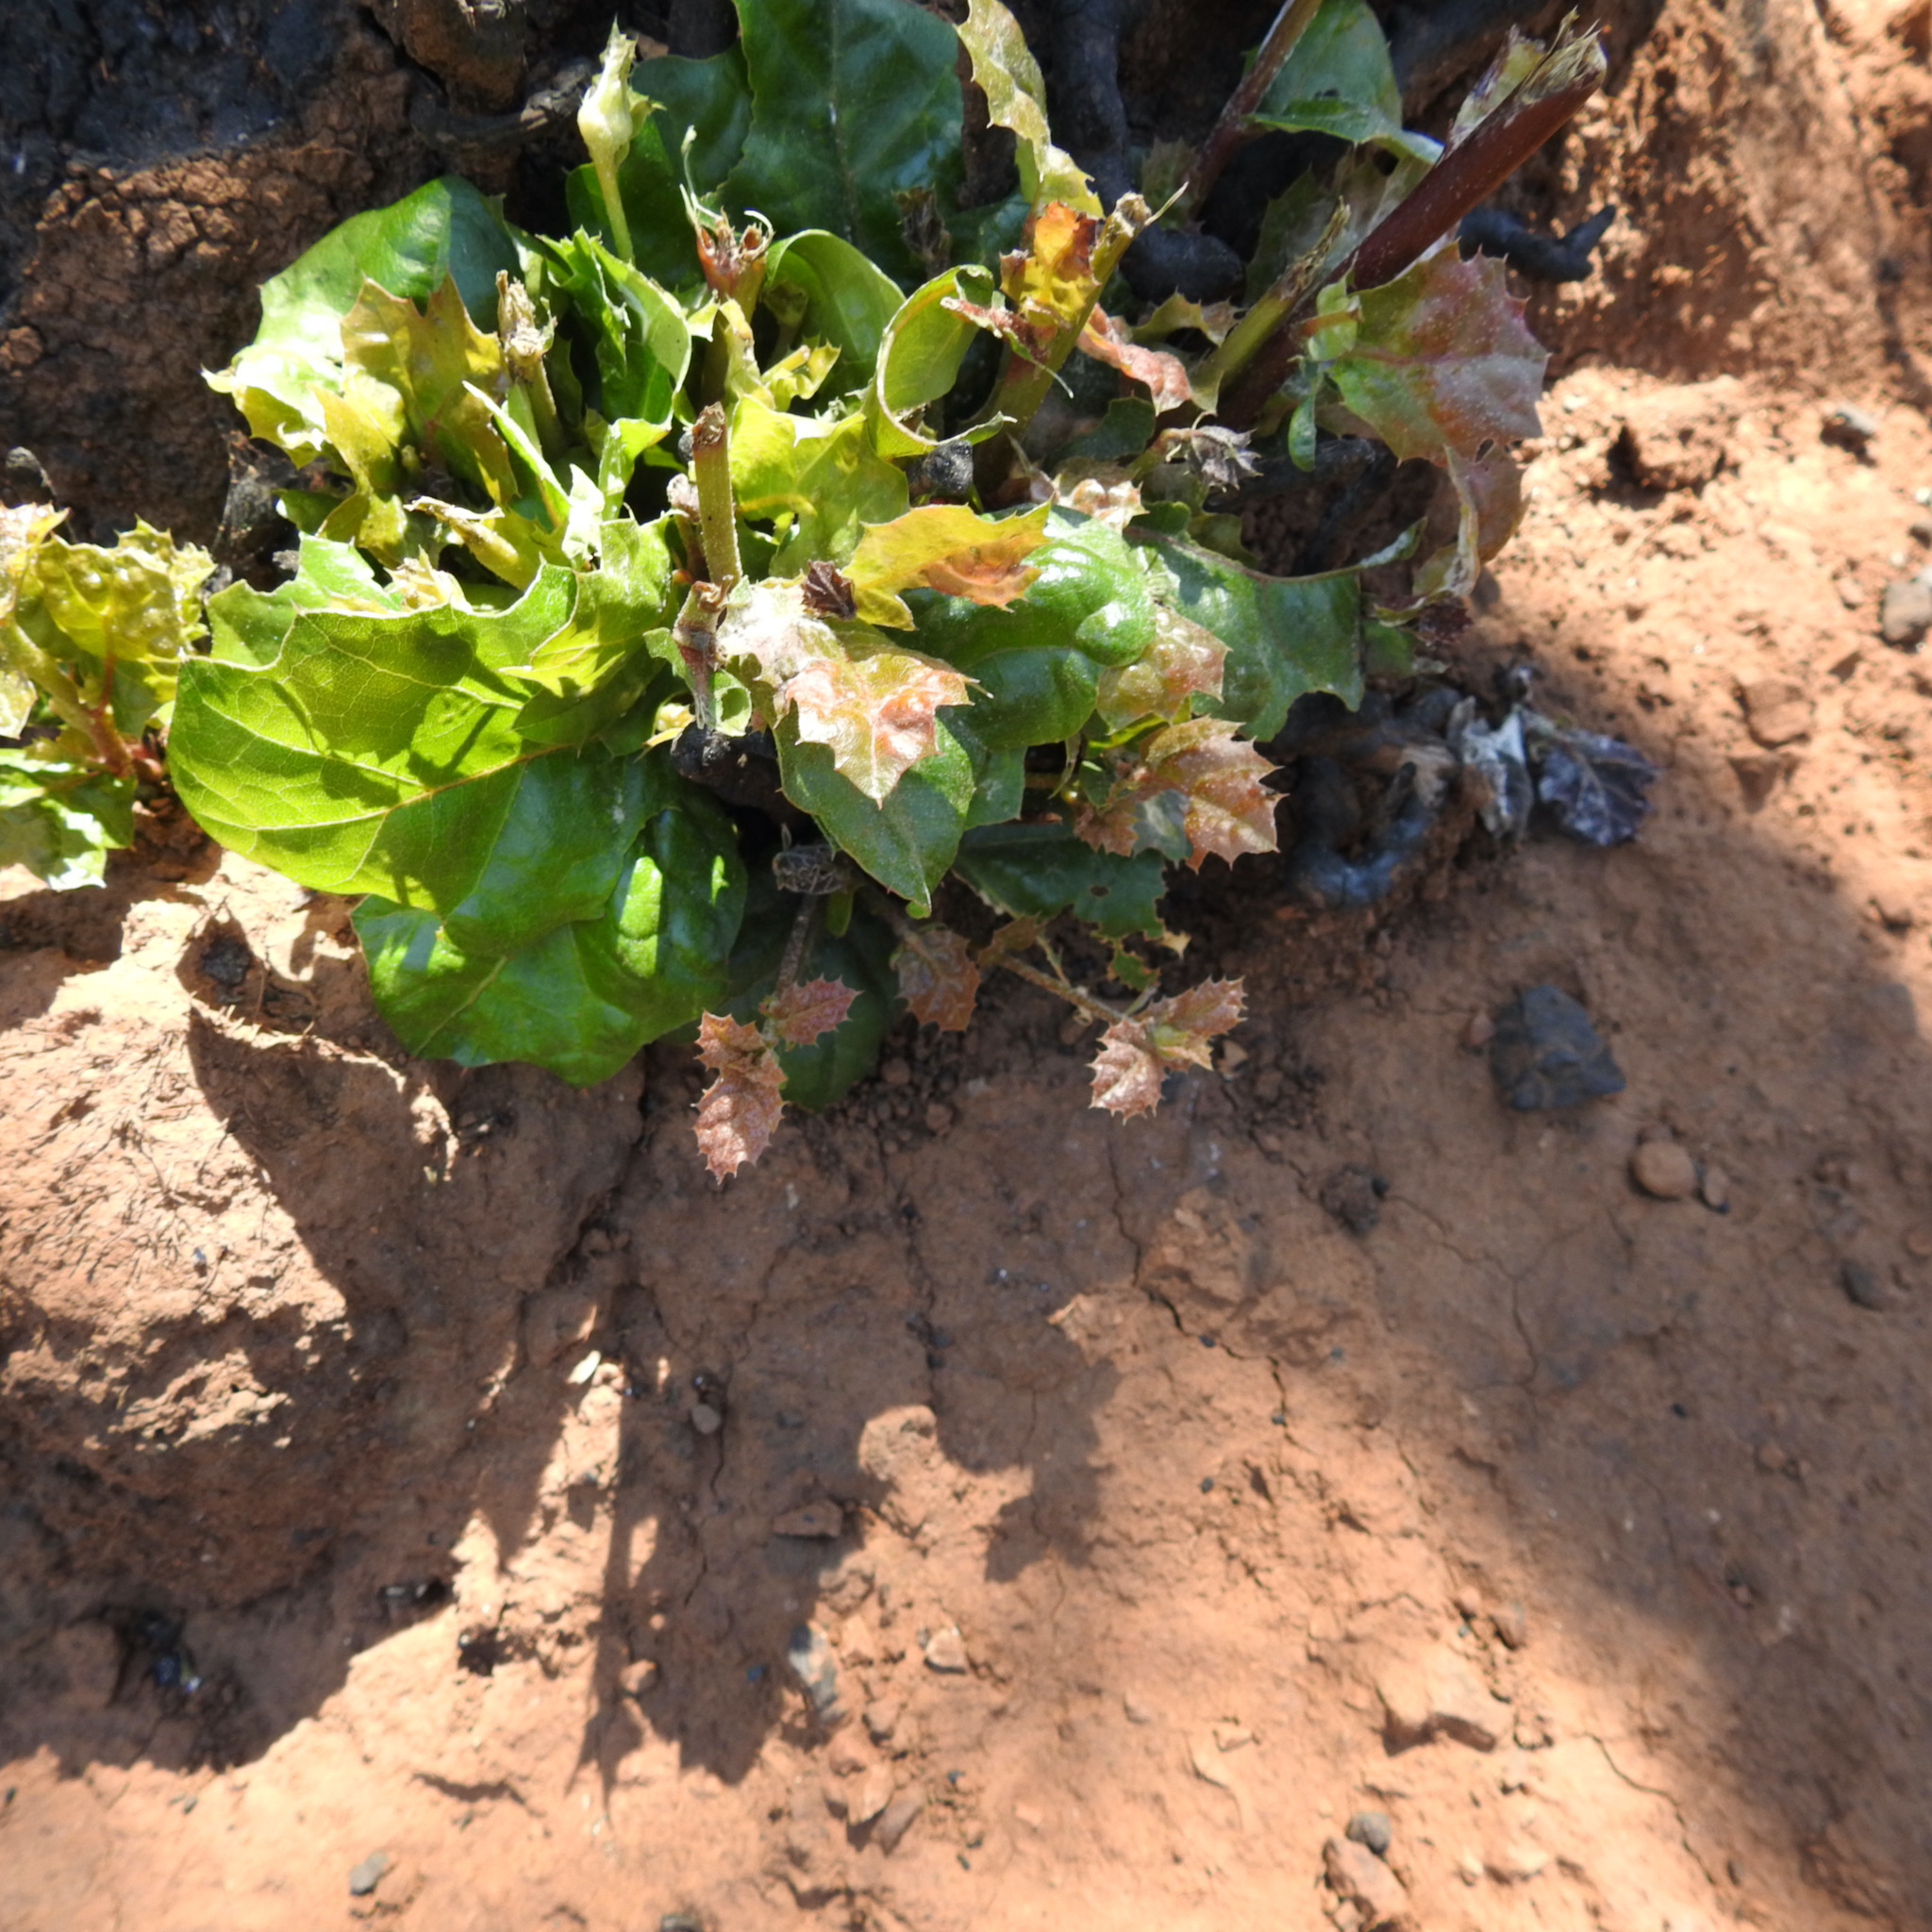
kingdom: Plantae
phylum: Tracheophyta
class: Magnoliopsida
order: Fagales
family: Fagaceae
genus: Quercus
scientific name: Quercus agrifolia
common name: California live oak
